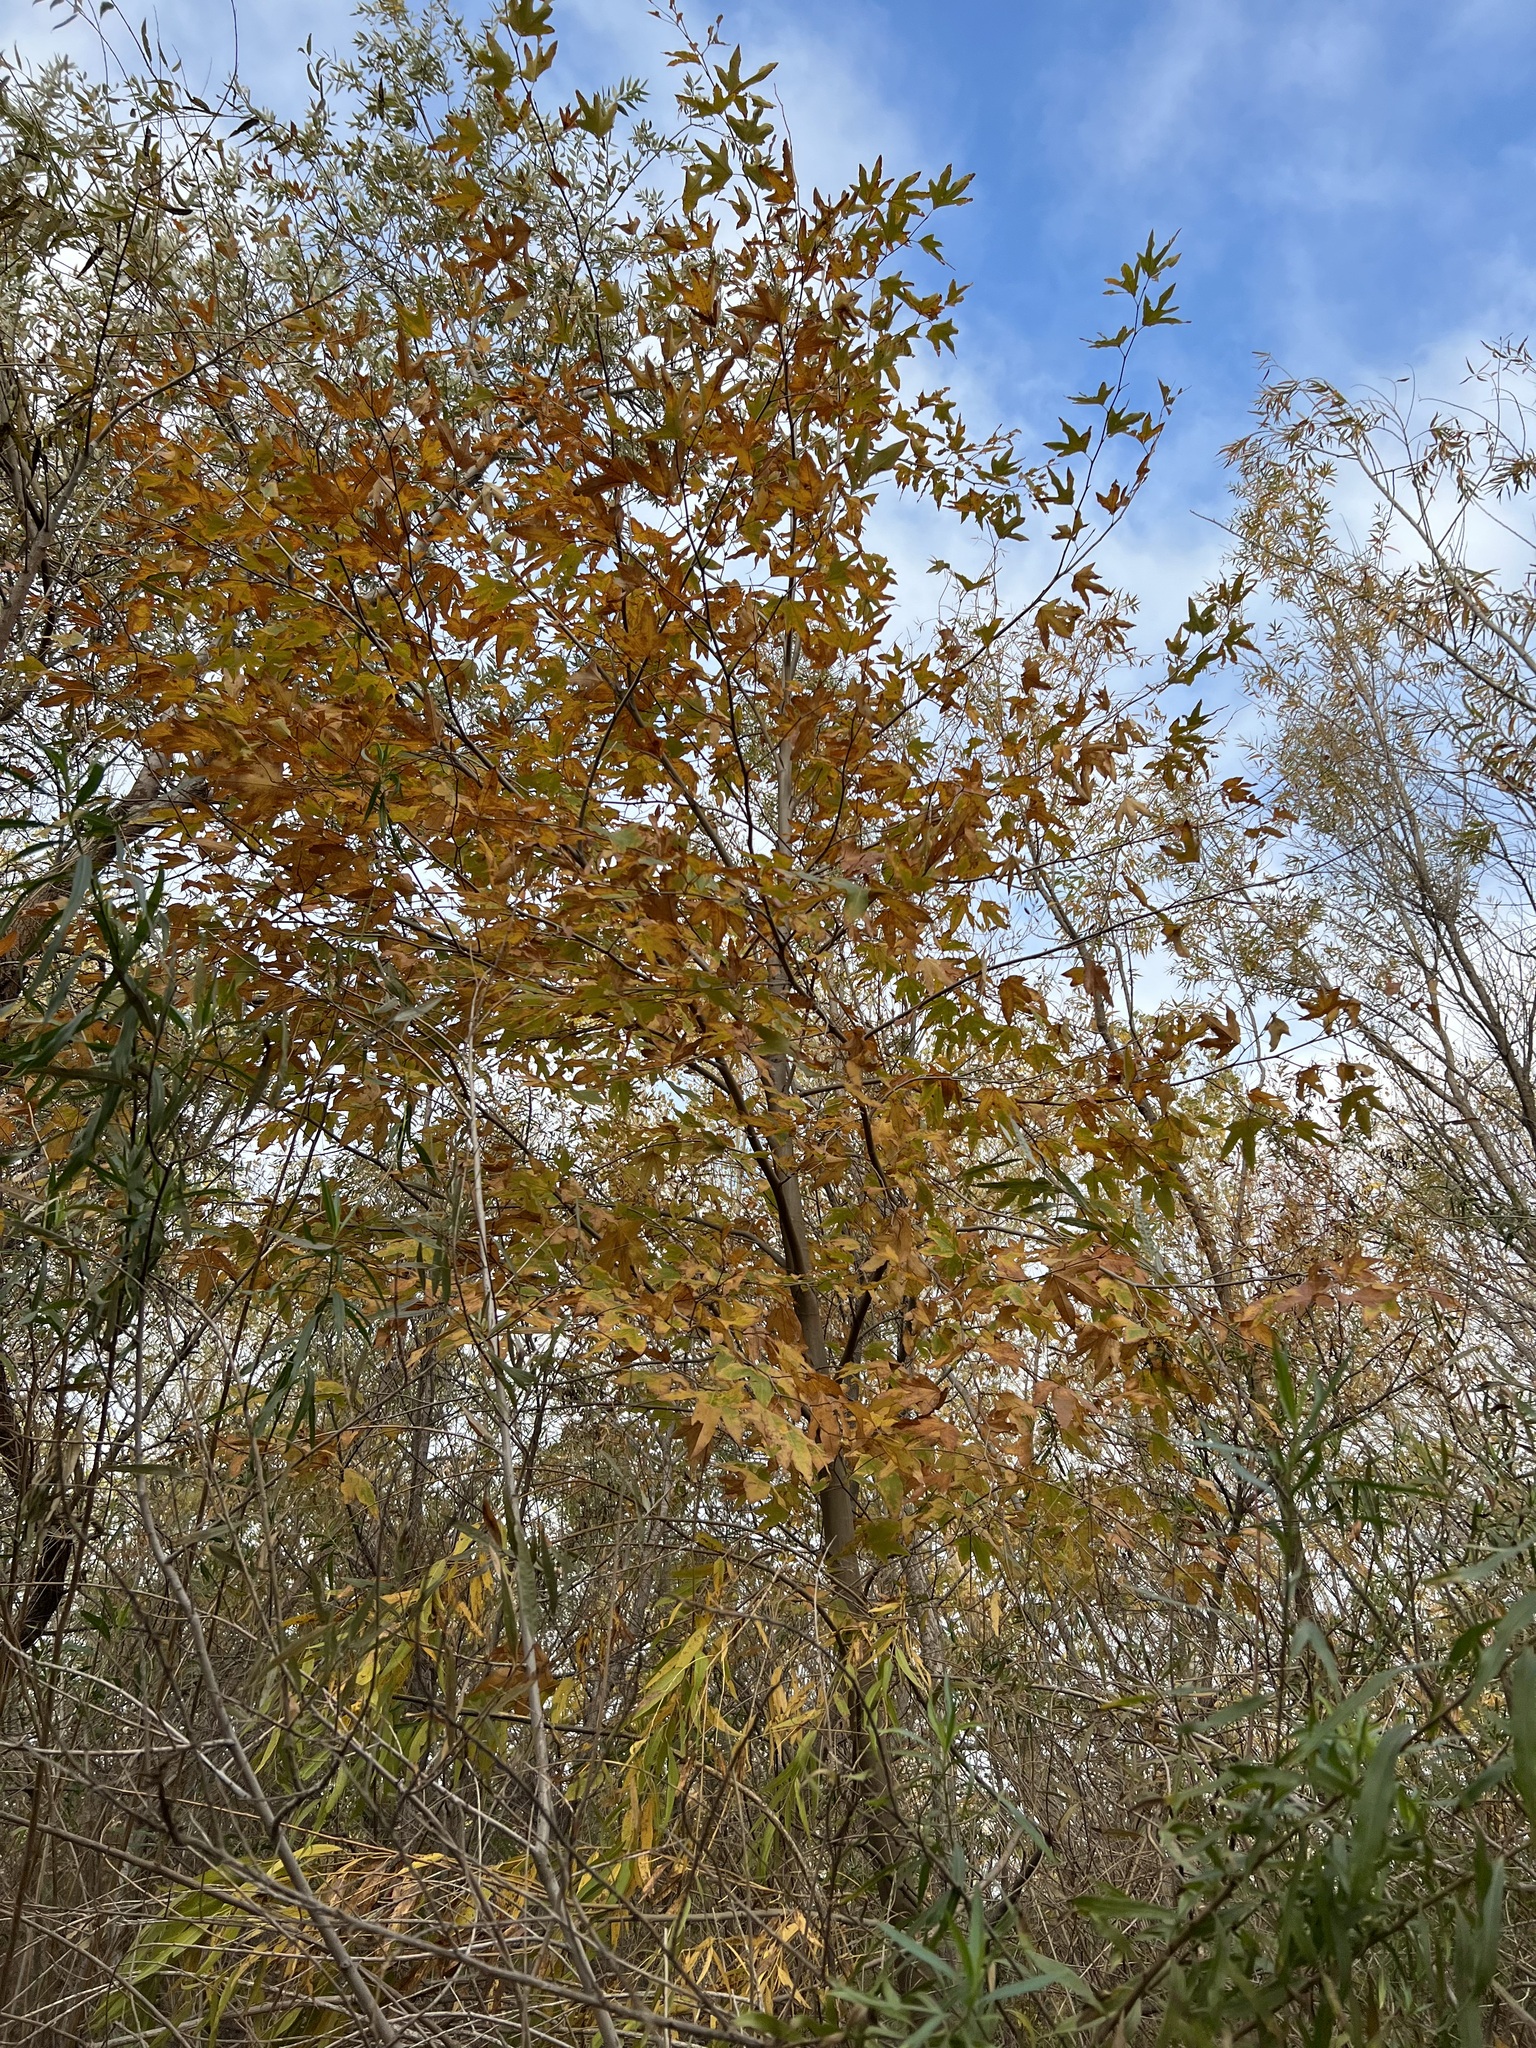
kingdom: Plantae
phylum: Tracheophyta
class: Magnoliopsida
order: Proteales
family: Platanaceae
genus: Platanus
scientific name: Platanus racemosa
